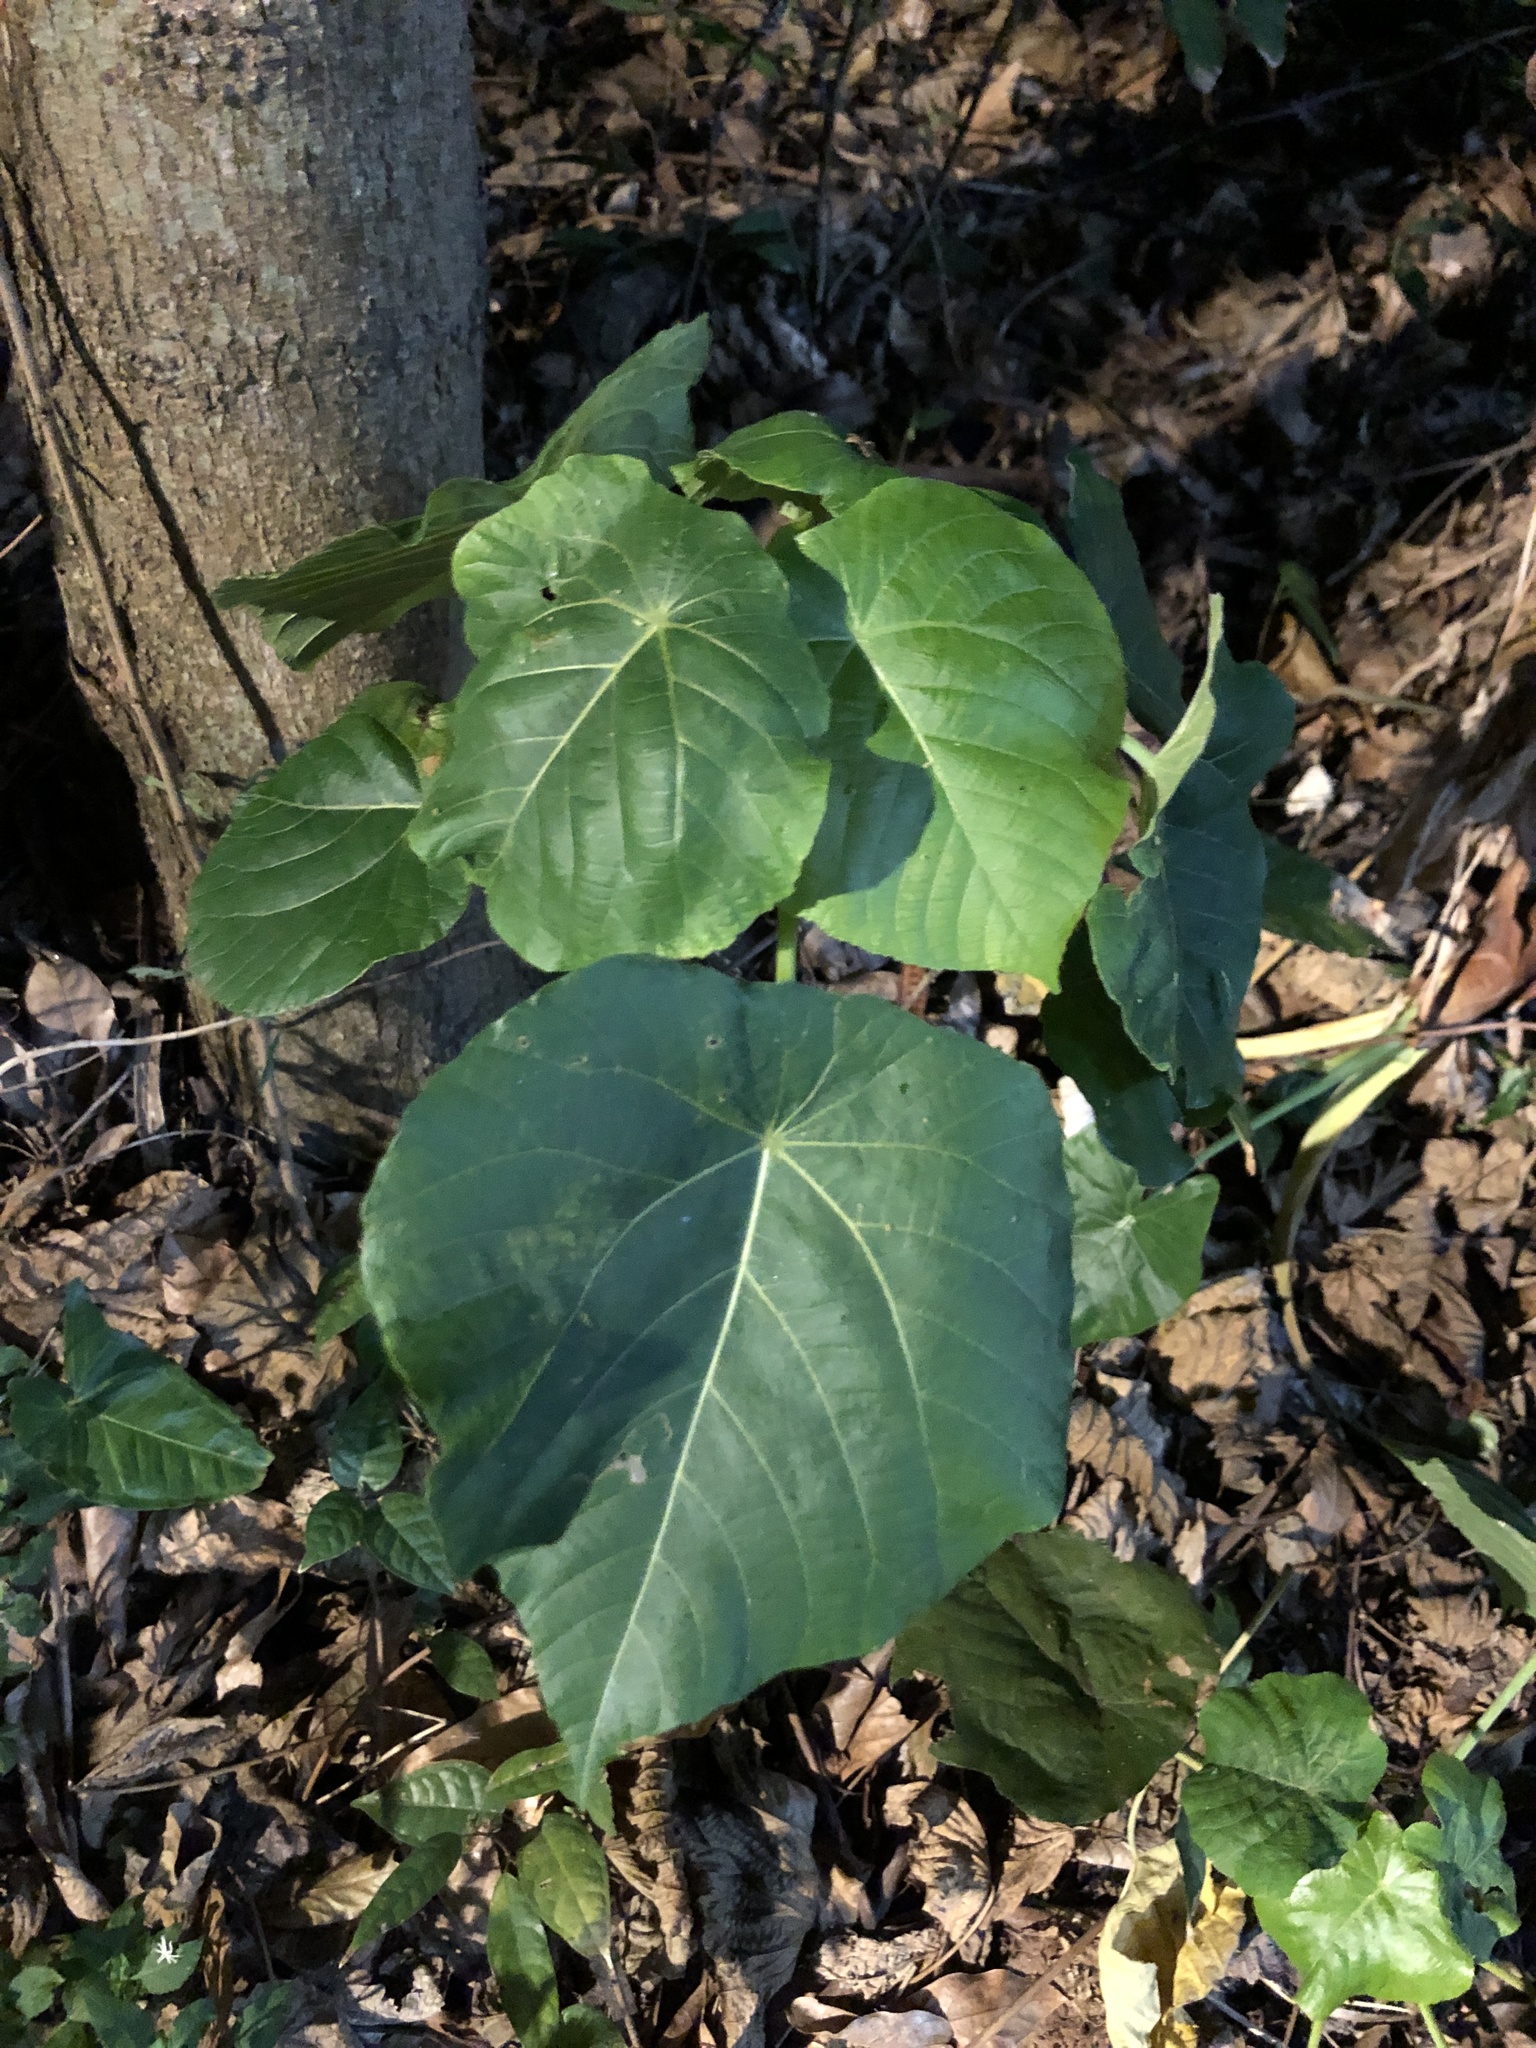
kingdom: Plantae
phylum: Tracheophyta
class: Magnoliopsida
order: Malpighiales
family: Euphorbiaceae
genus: Macaranga
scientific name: Macaranga tanarius
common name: Parasol leaf tree
